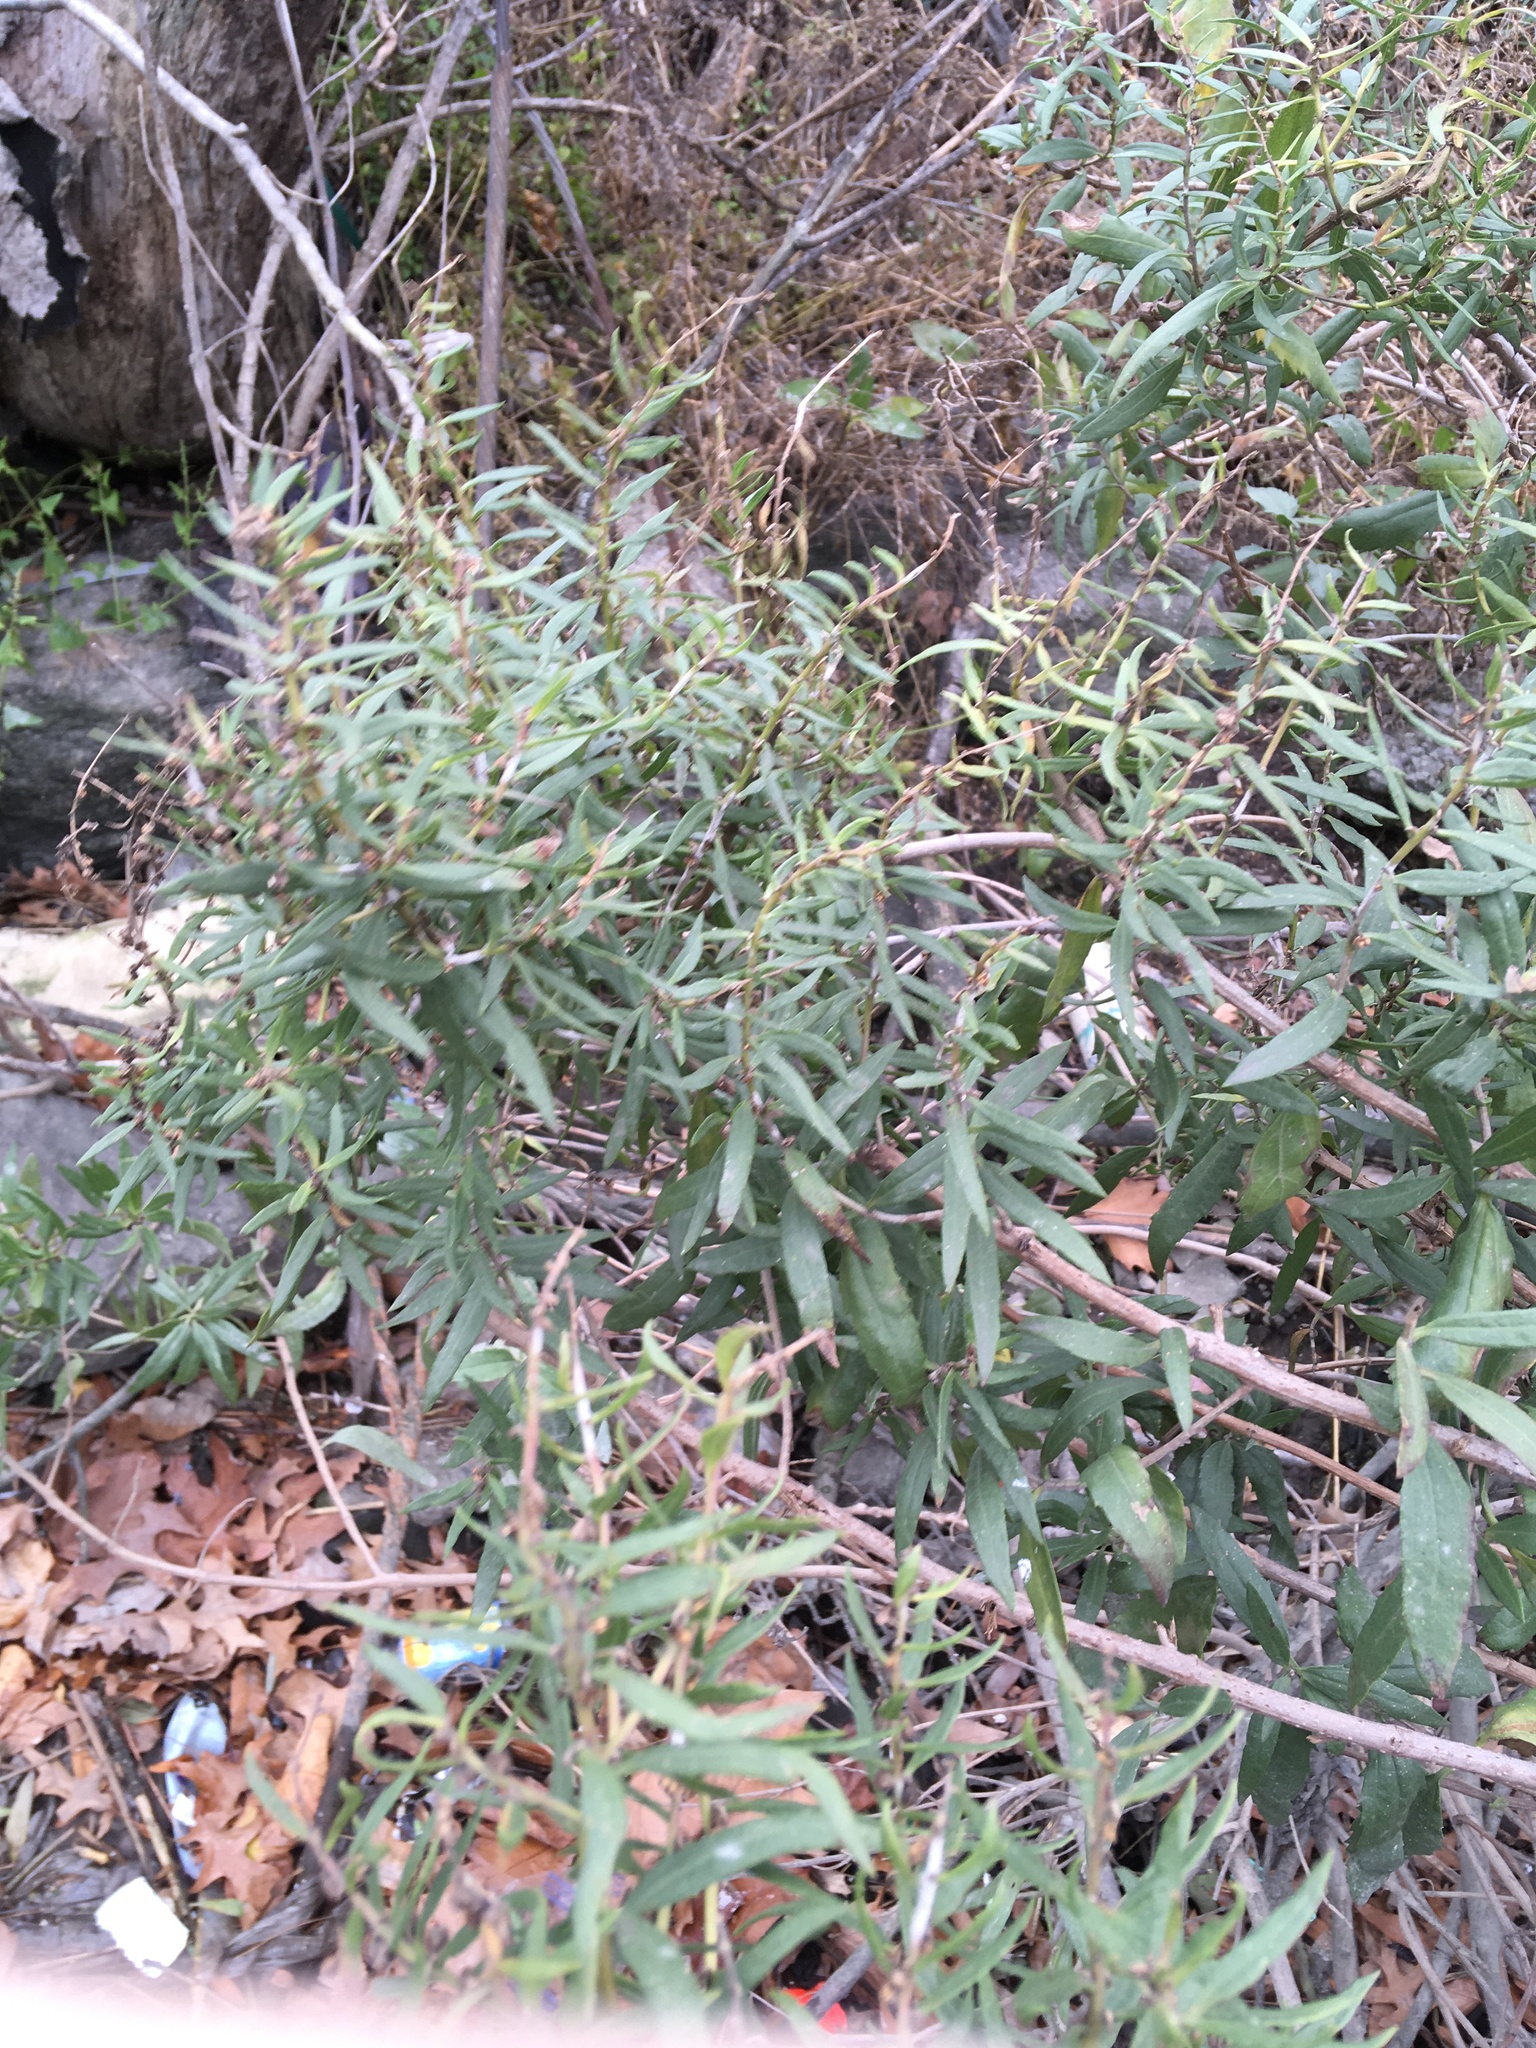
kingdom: Plantae
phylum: Tracheophyta
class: Magnoliopsida
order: Asterales
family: Asteraceae
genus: Artemisia
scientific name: Artemisia vulgaris
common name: Mugwort
